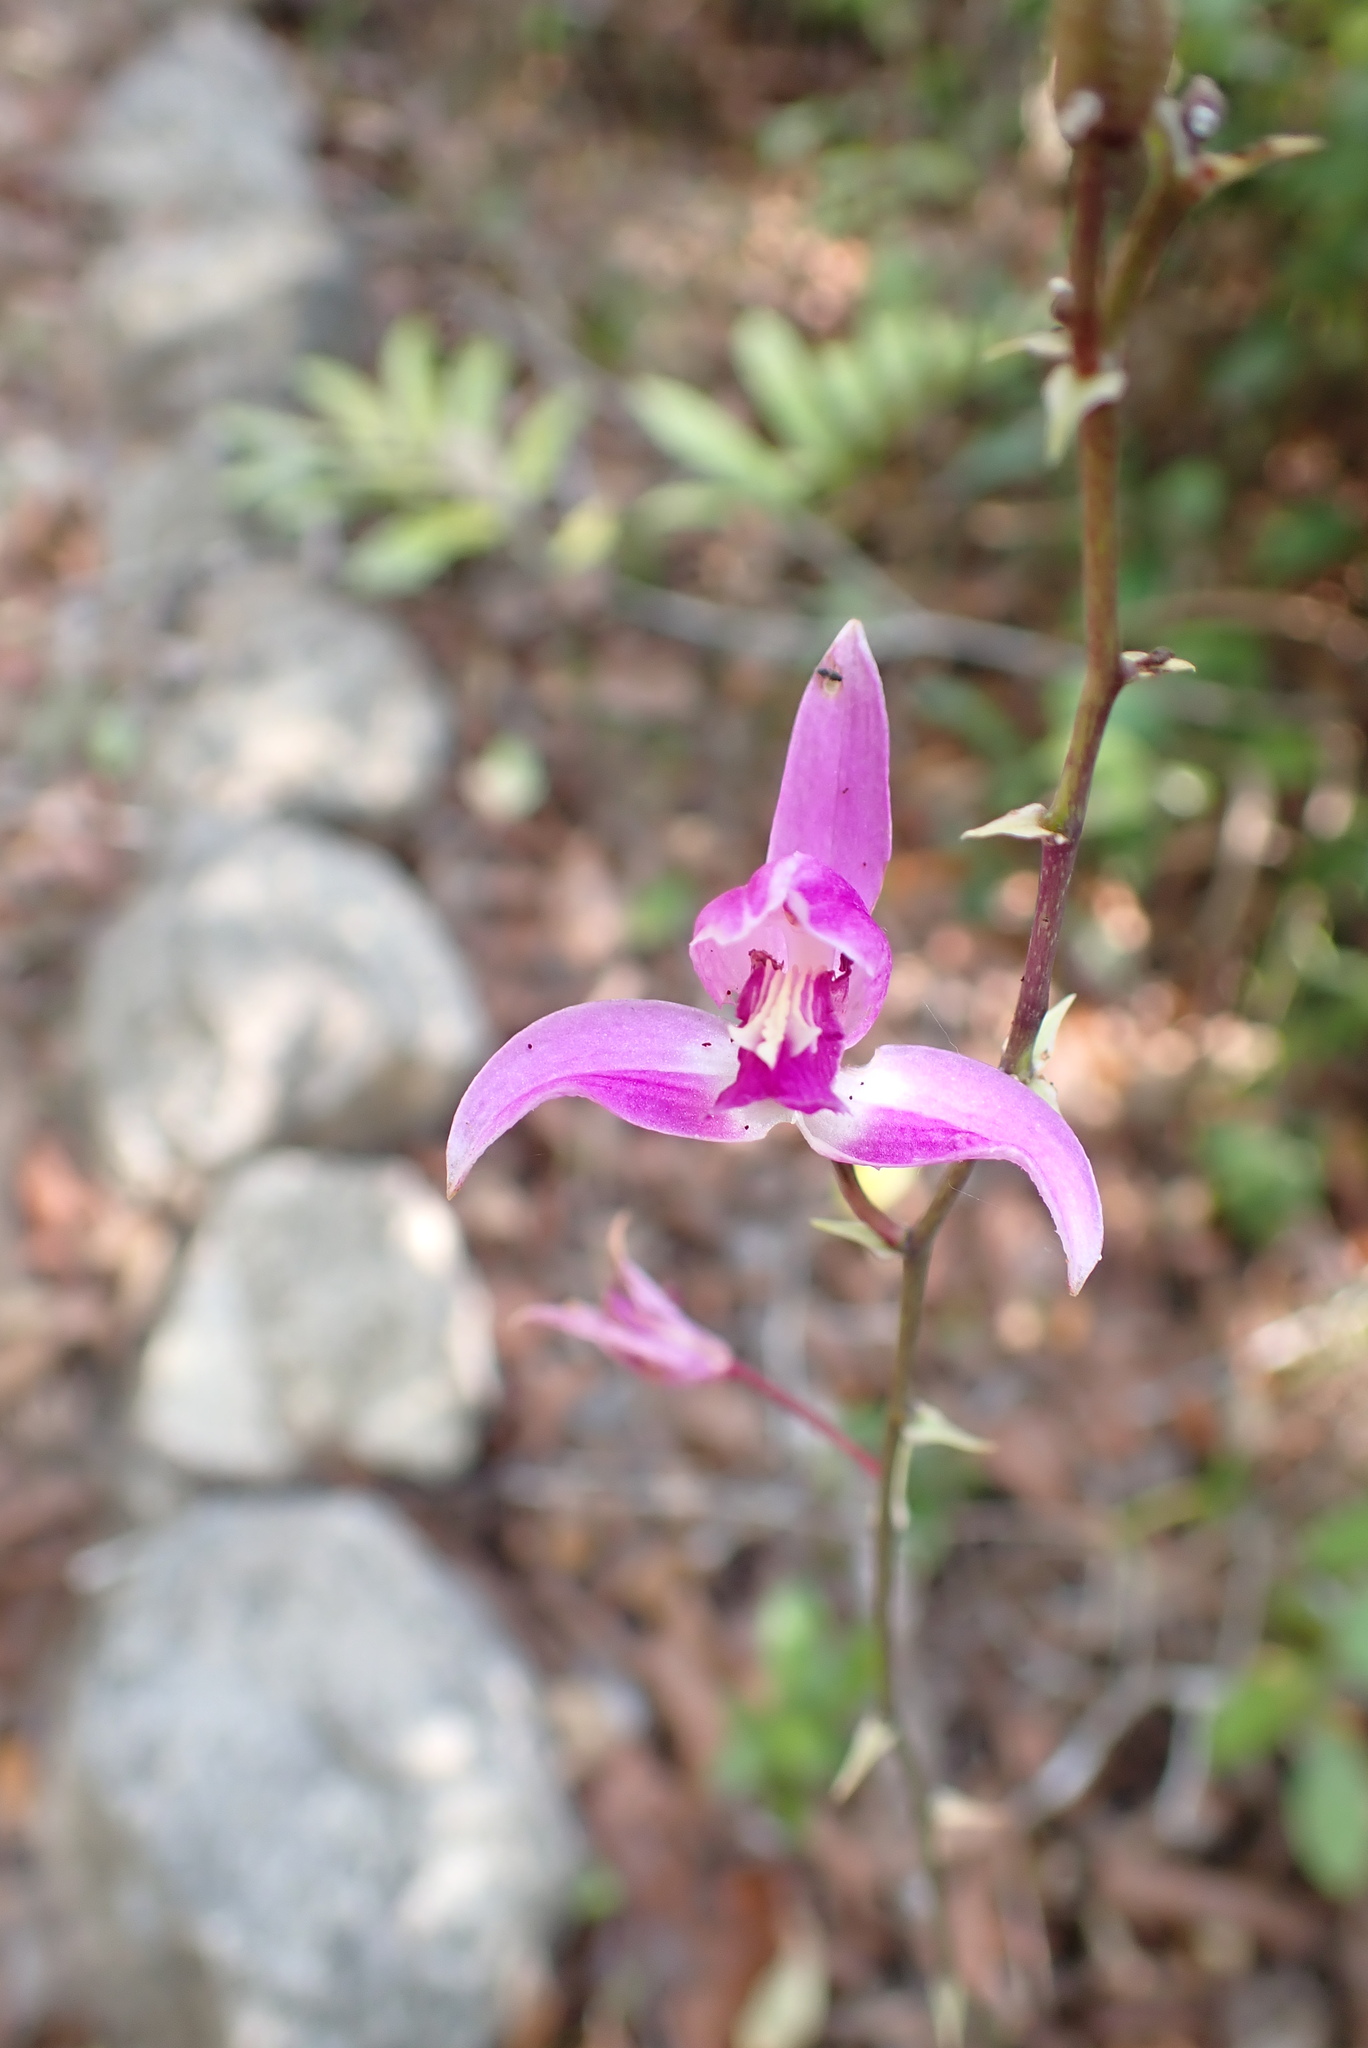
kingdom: Plantae
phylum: Tracheophyta
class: Liliopsida
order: Asparagales
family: Orchidaceae
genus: Bletia
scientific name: Bletia purpurea
